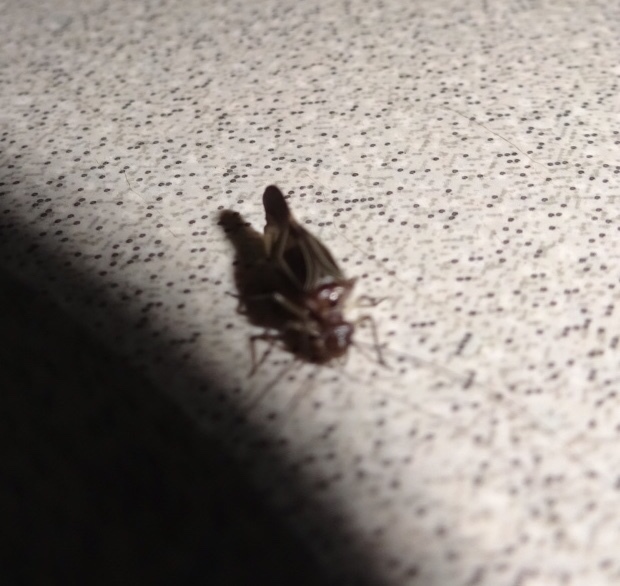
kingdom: Animalia
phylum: Arthropoda
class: Insecta
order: Psocodea
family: Psocidae
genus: Cerastipsocus
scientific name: Cerastipsocus venosus
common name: Tree cattle
